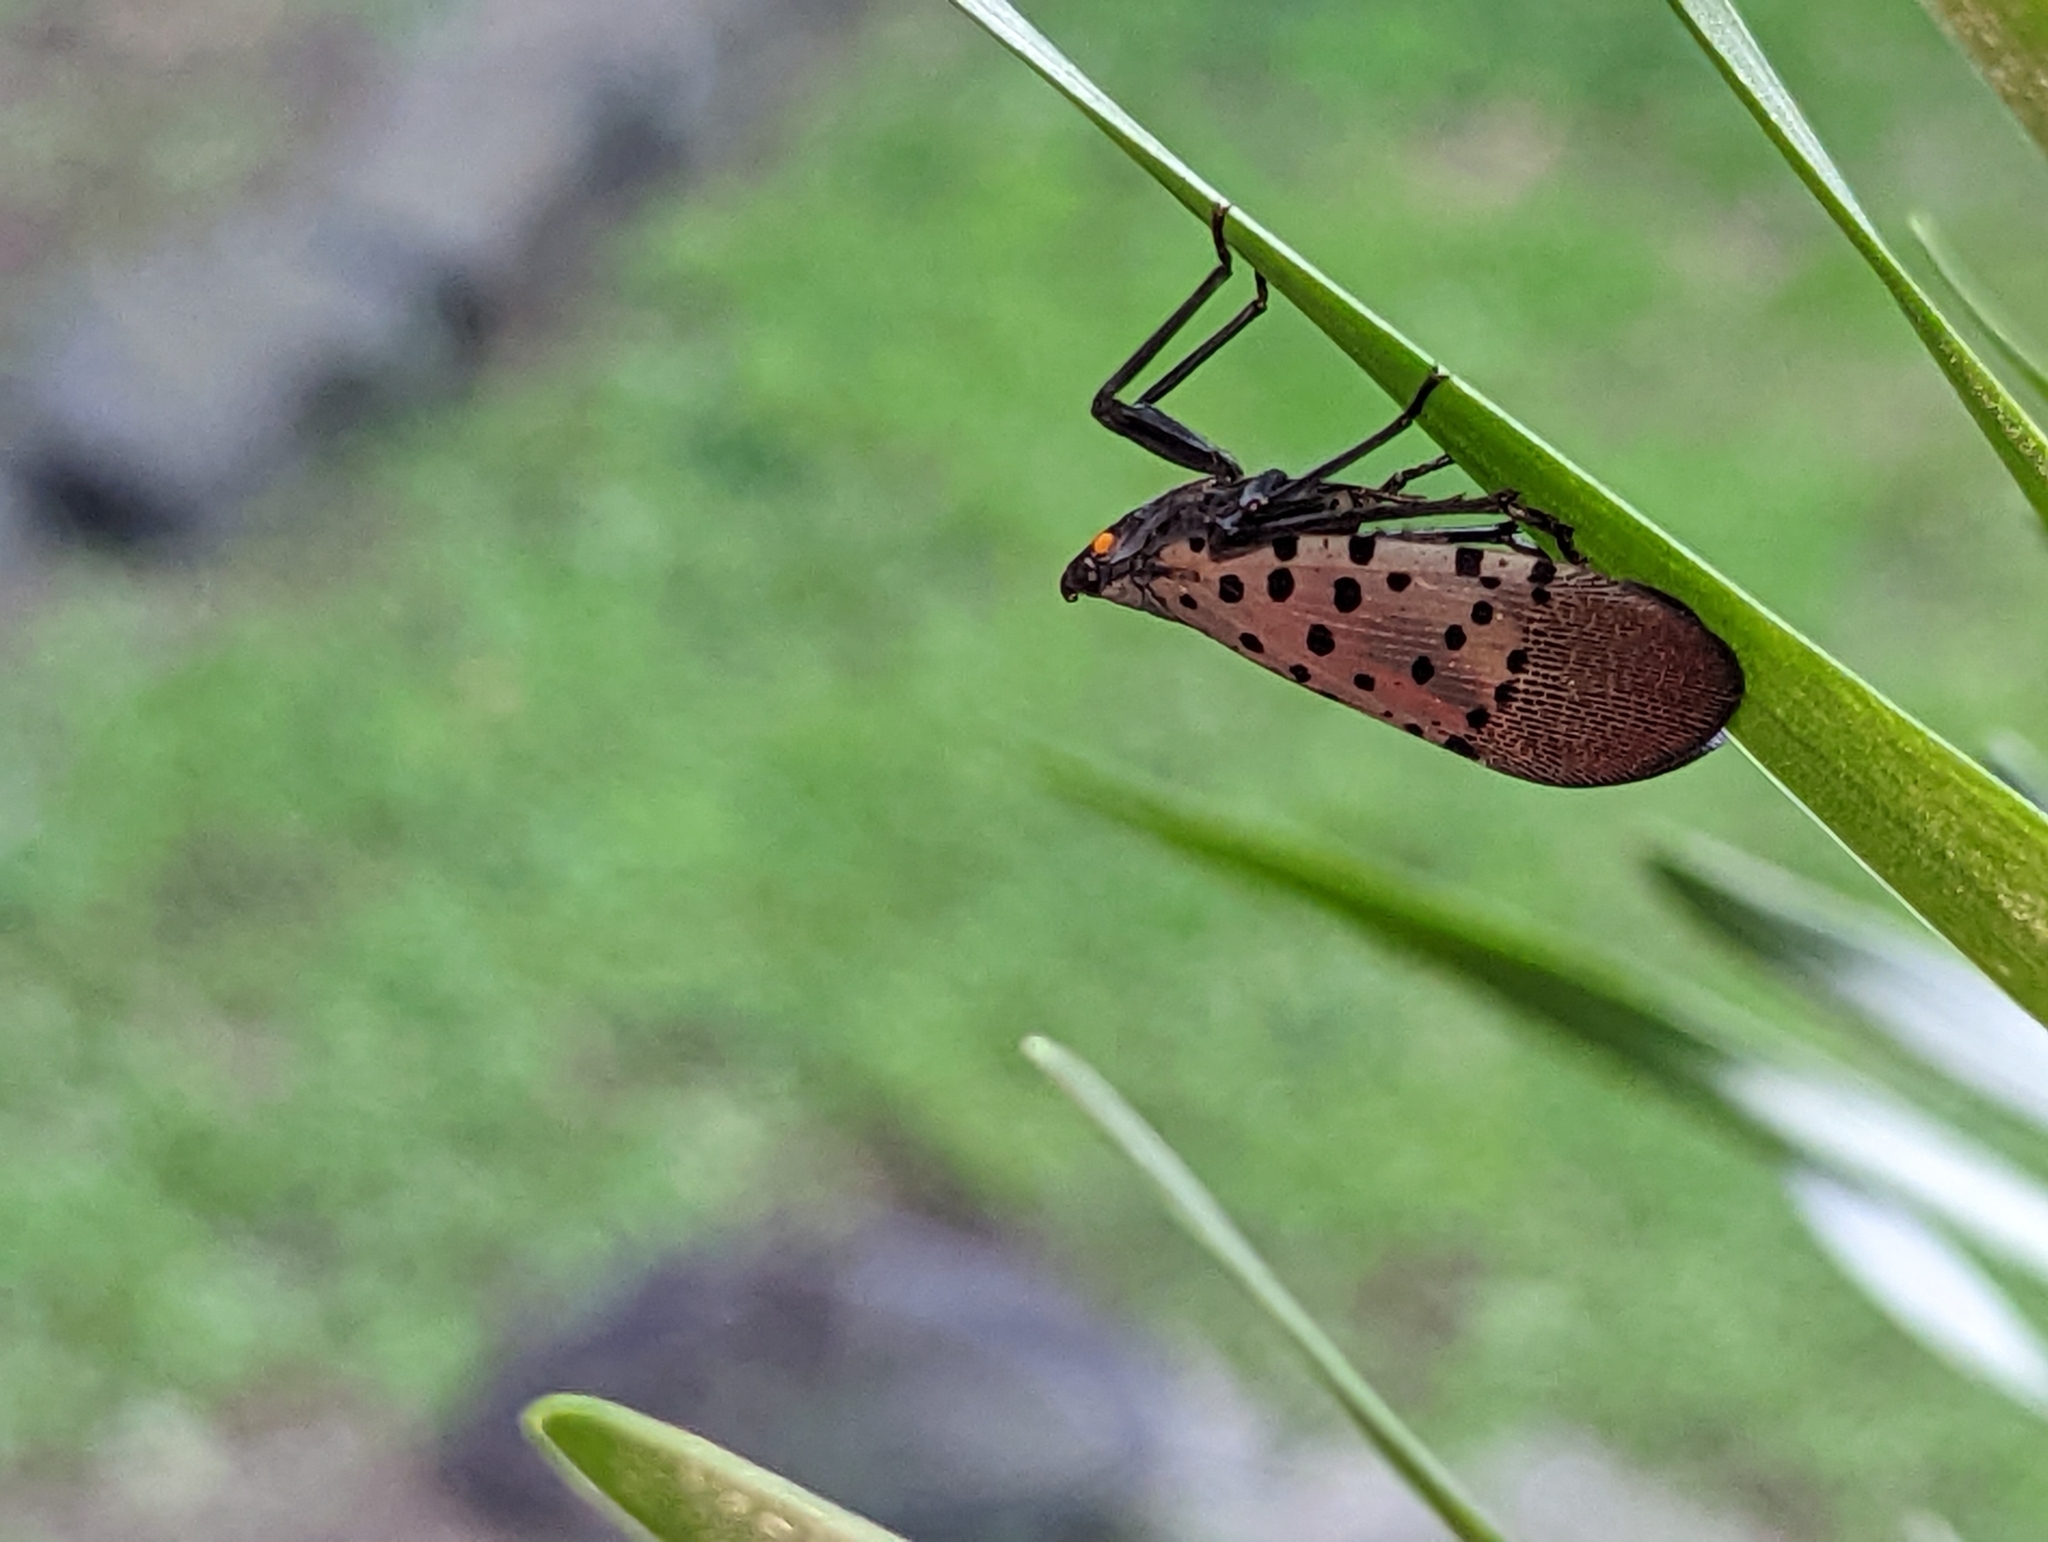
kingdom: Animalia
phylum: Arthropoda
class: Insecta
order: Hemiptera
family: Fulgoridae
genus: Lycorma
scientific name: Lycorma delicatula
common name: Spotted lanternfly
